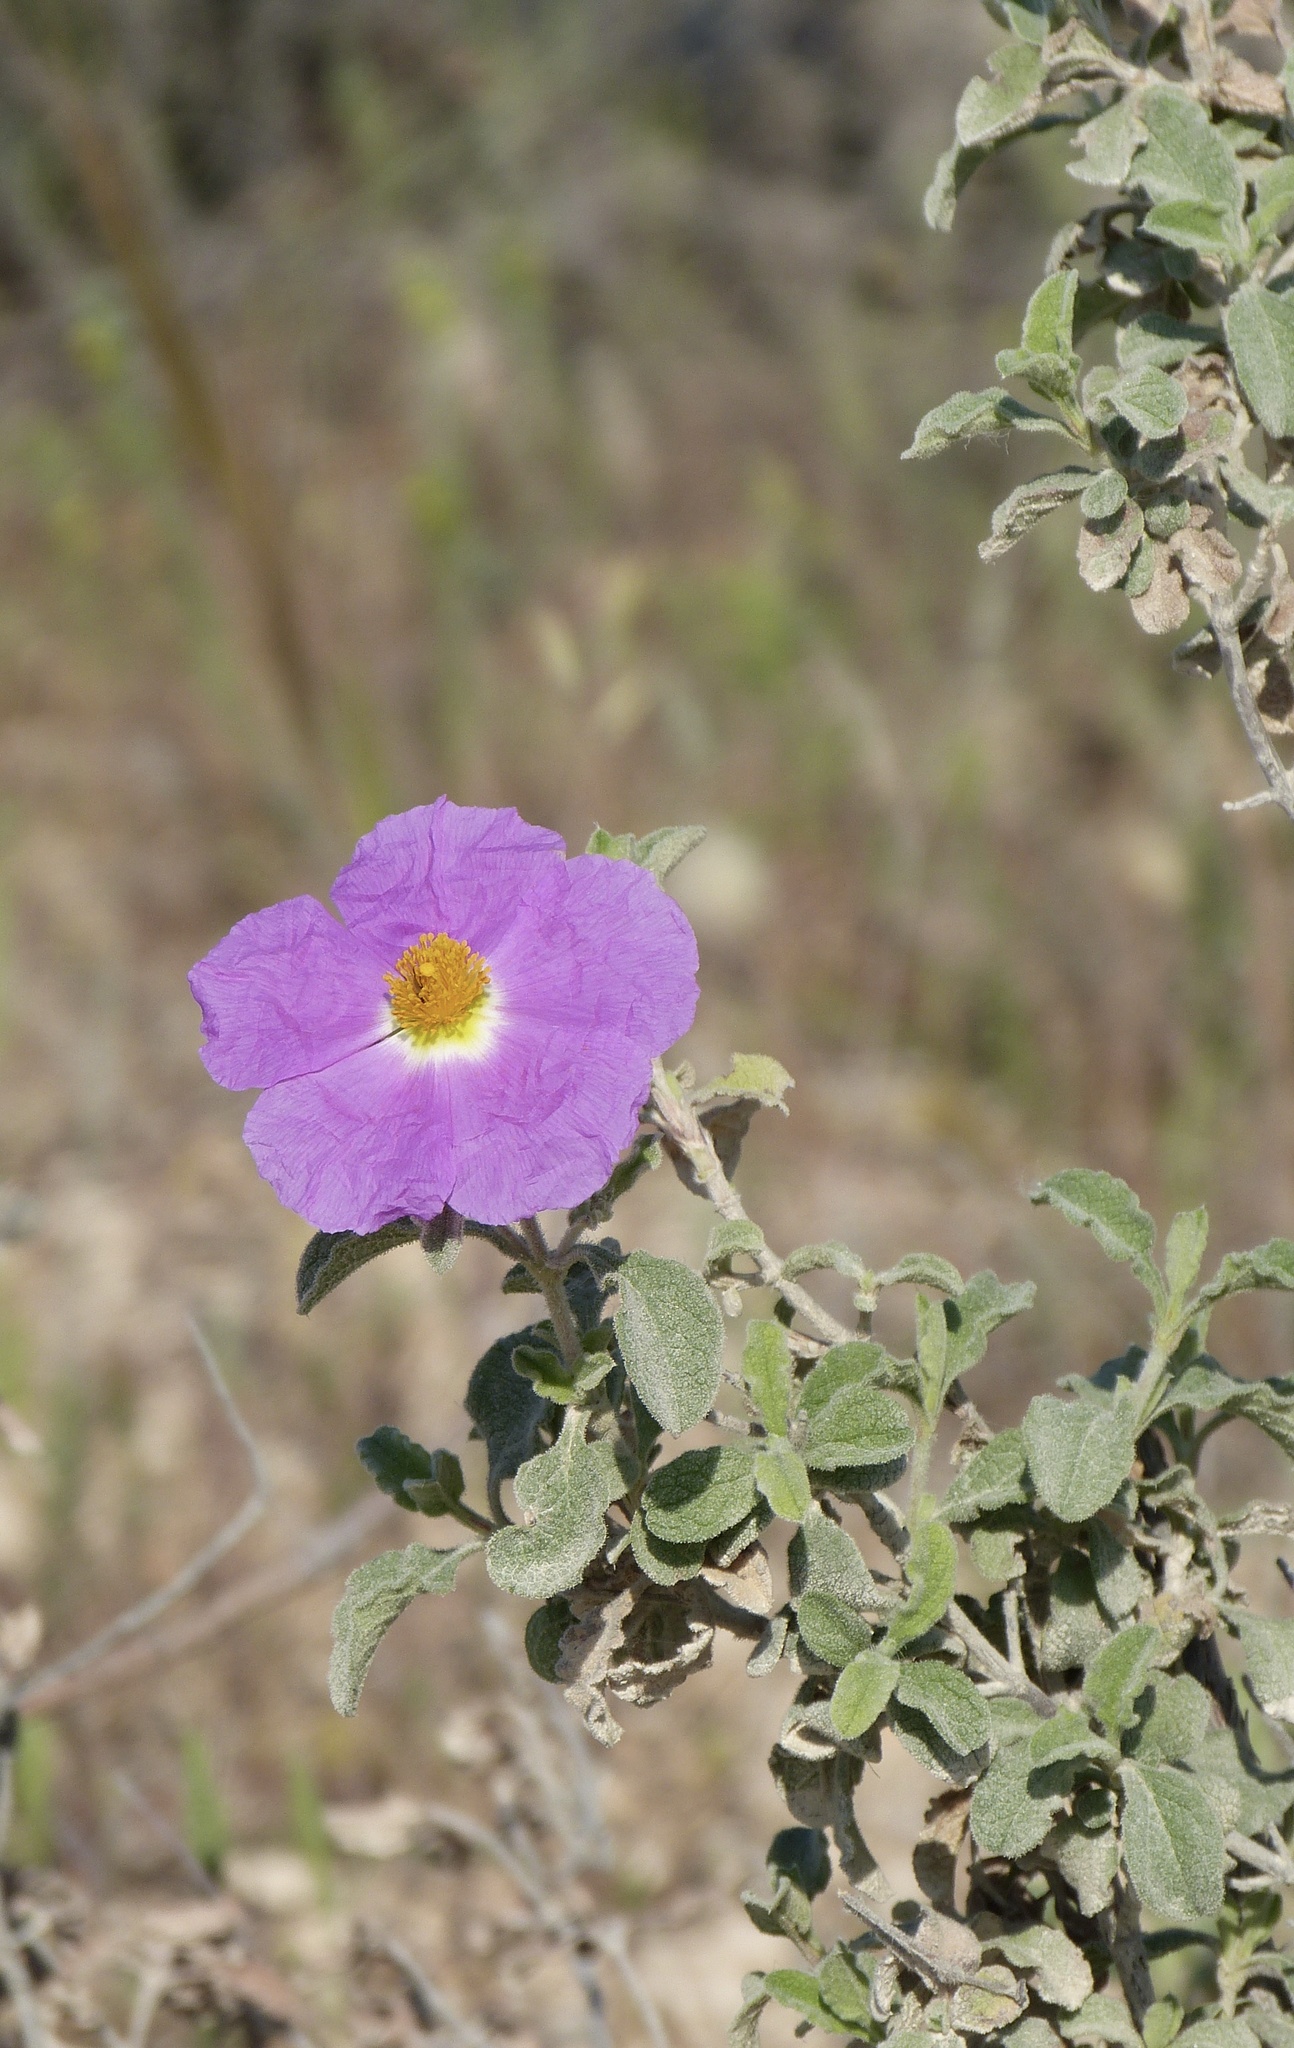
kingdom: Plantae
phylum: Tracheophyta
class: Magnoliopsida
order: Malvales
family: Cistaceae
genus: Cistus
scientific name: Cistus creticus
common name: Cretan rockrose
